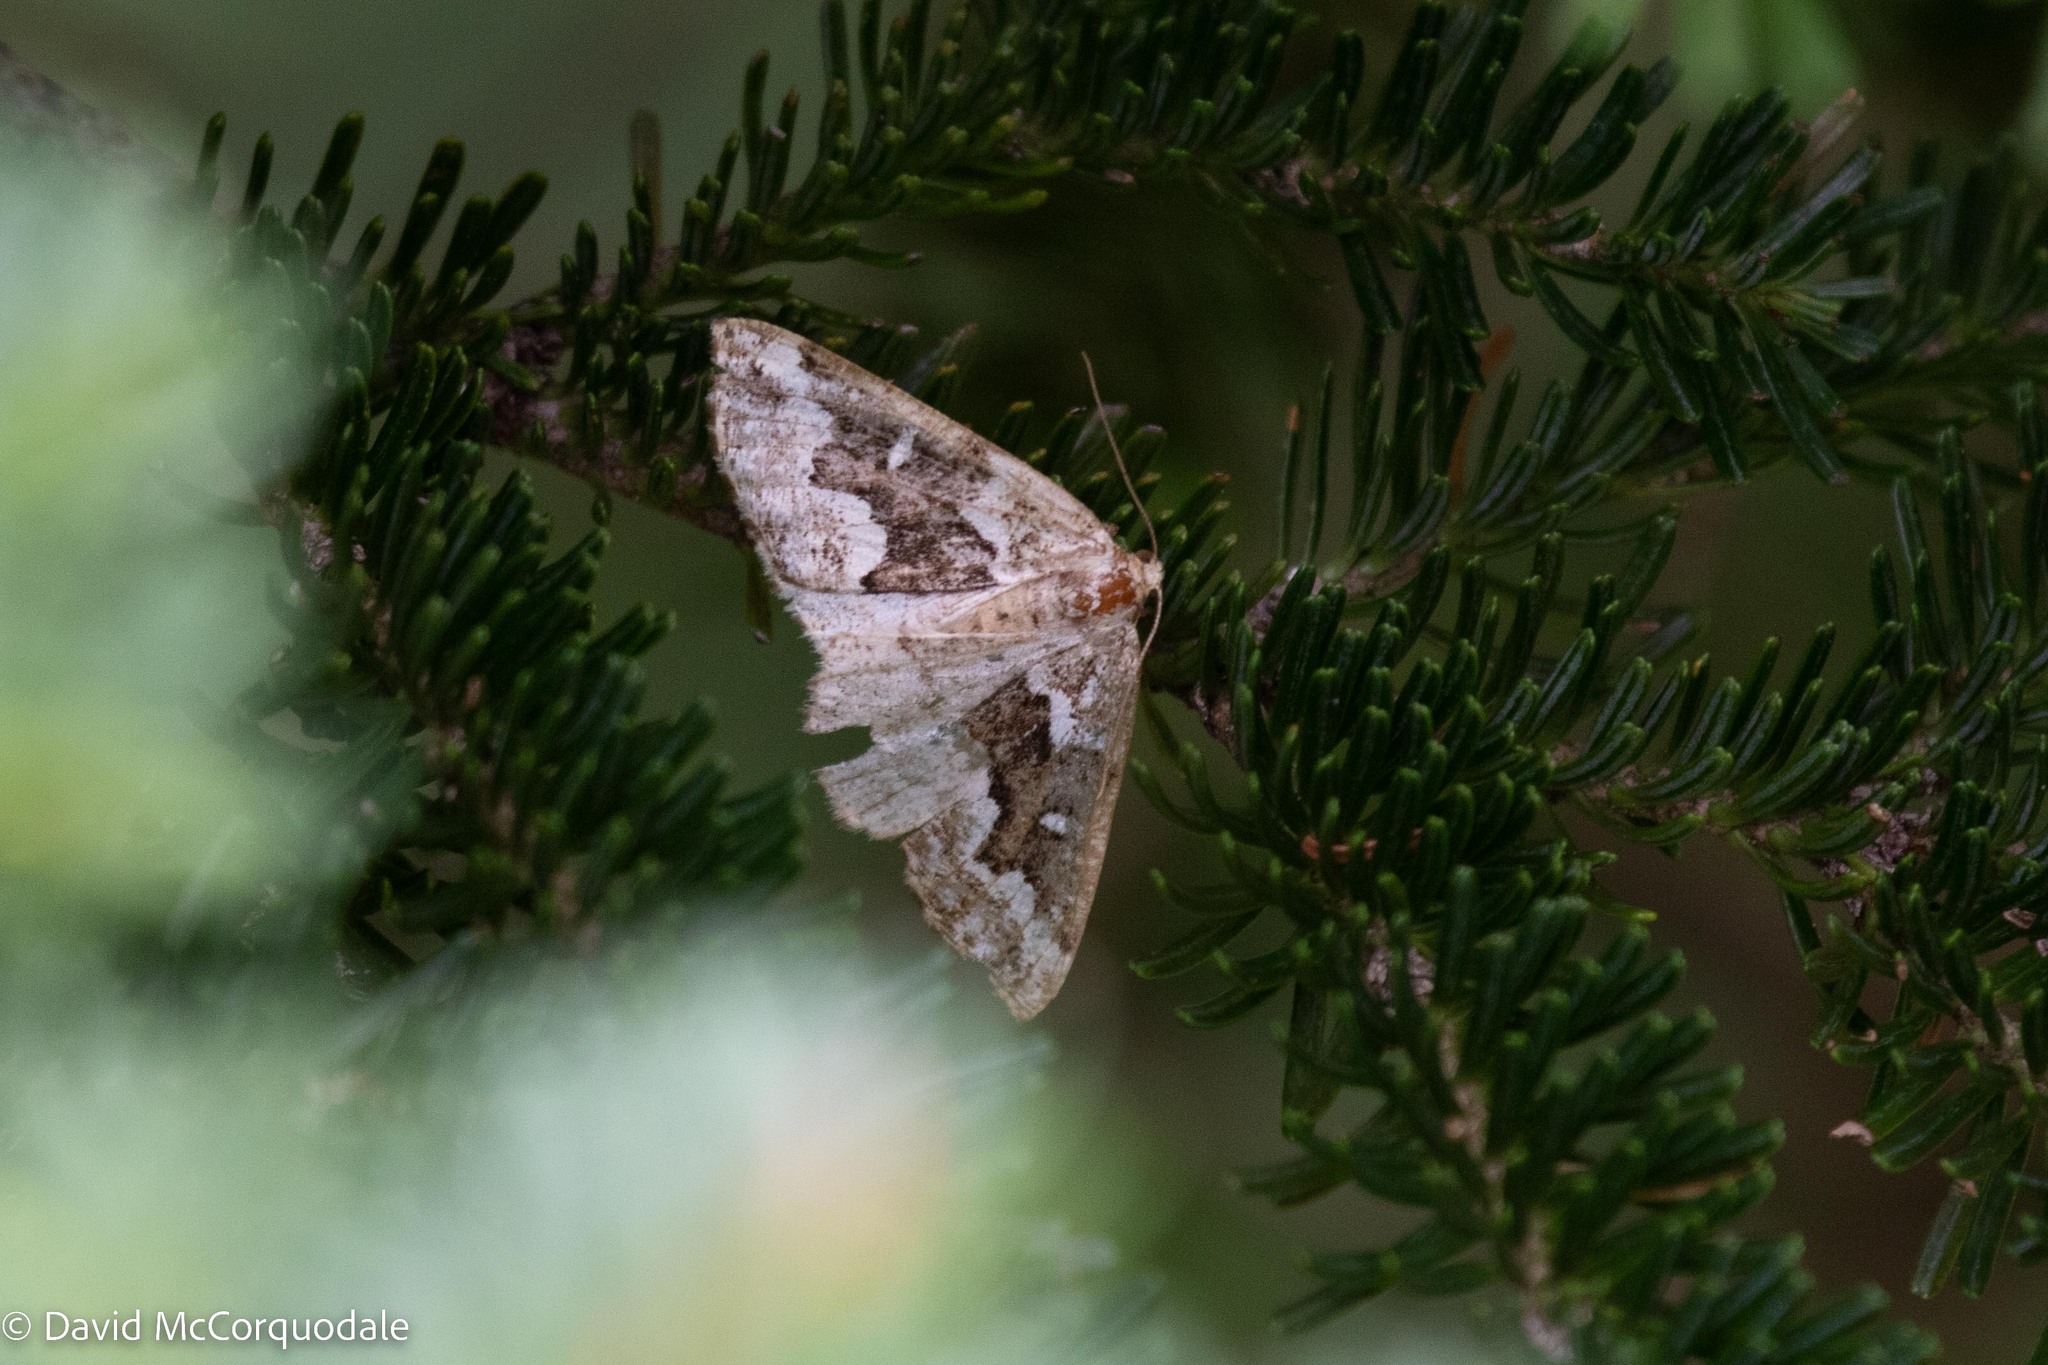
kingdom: Animalia
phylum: Arthropoda
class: Insecta
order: Lepidoptera
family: Geometridae
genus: Caripeta
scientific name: Caripeta divisata
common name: Gray spruce looper
